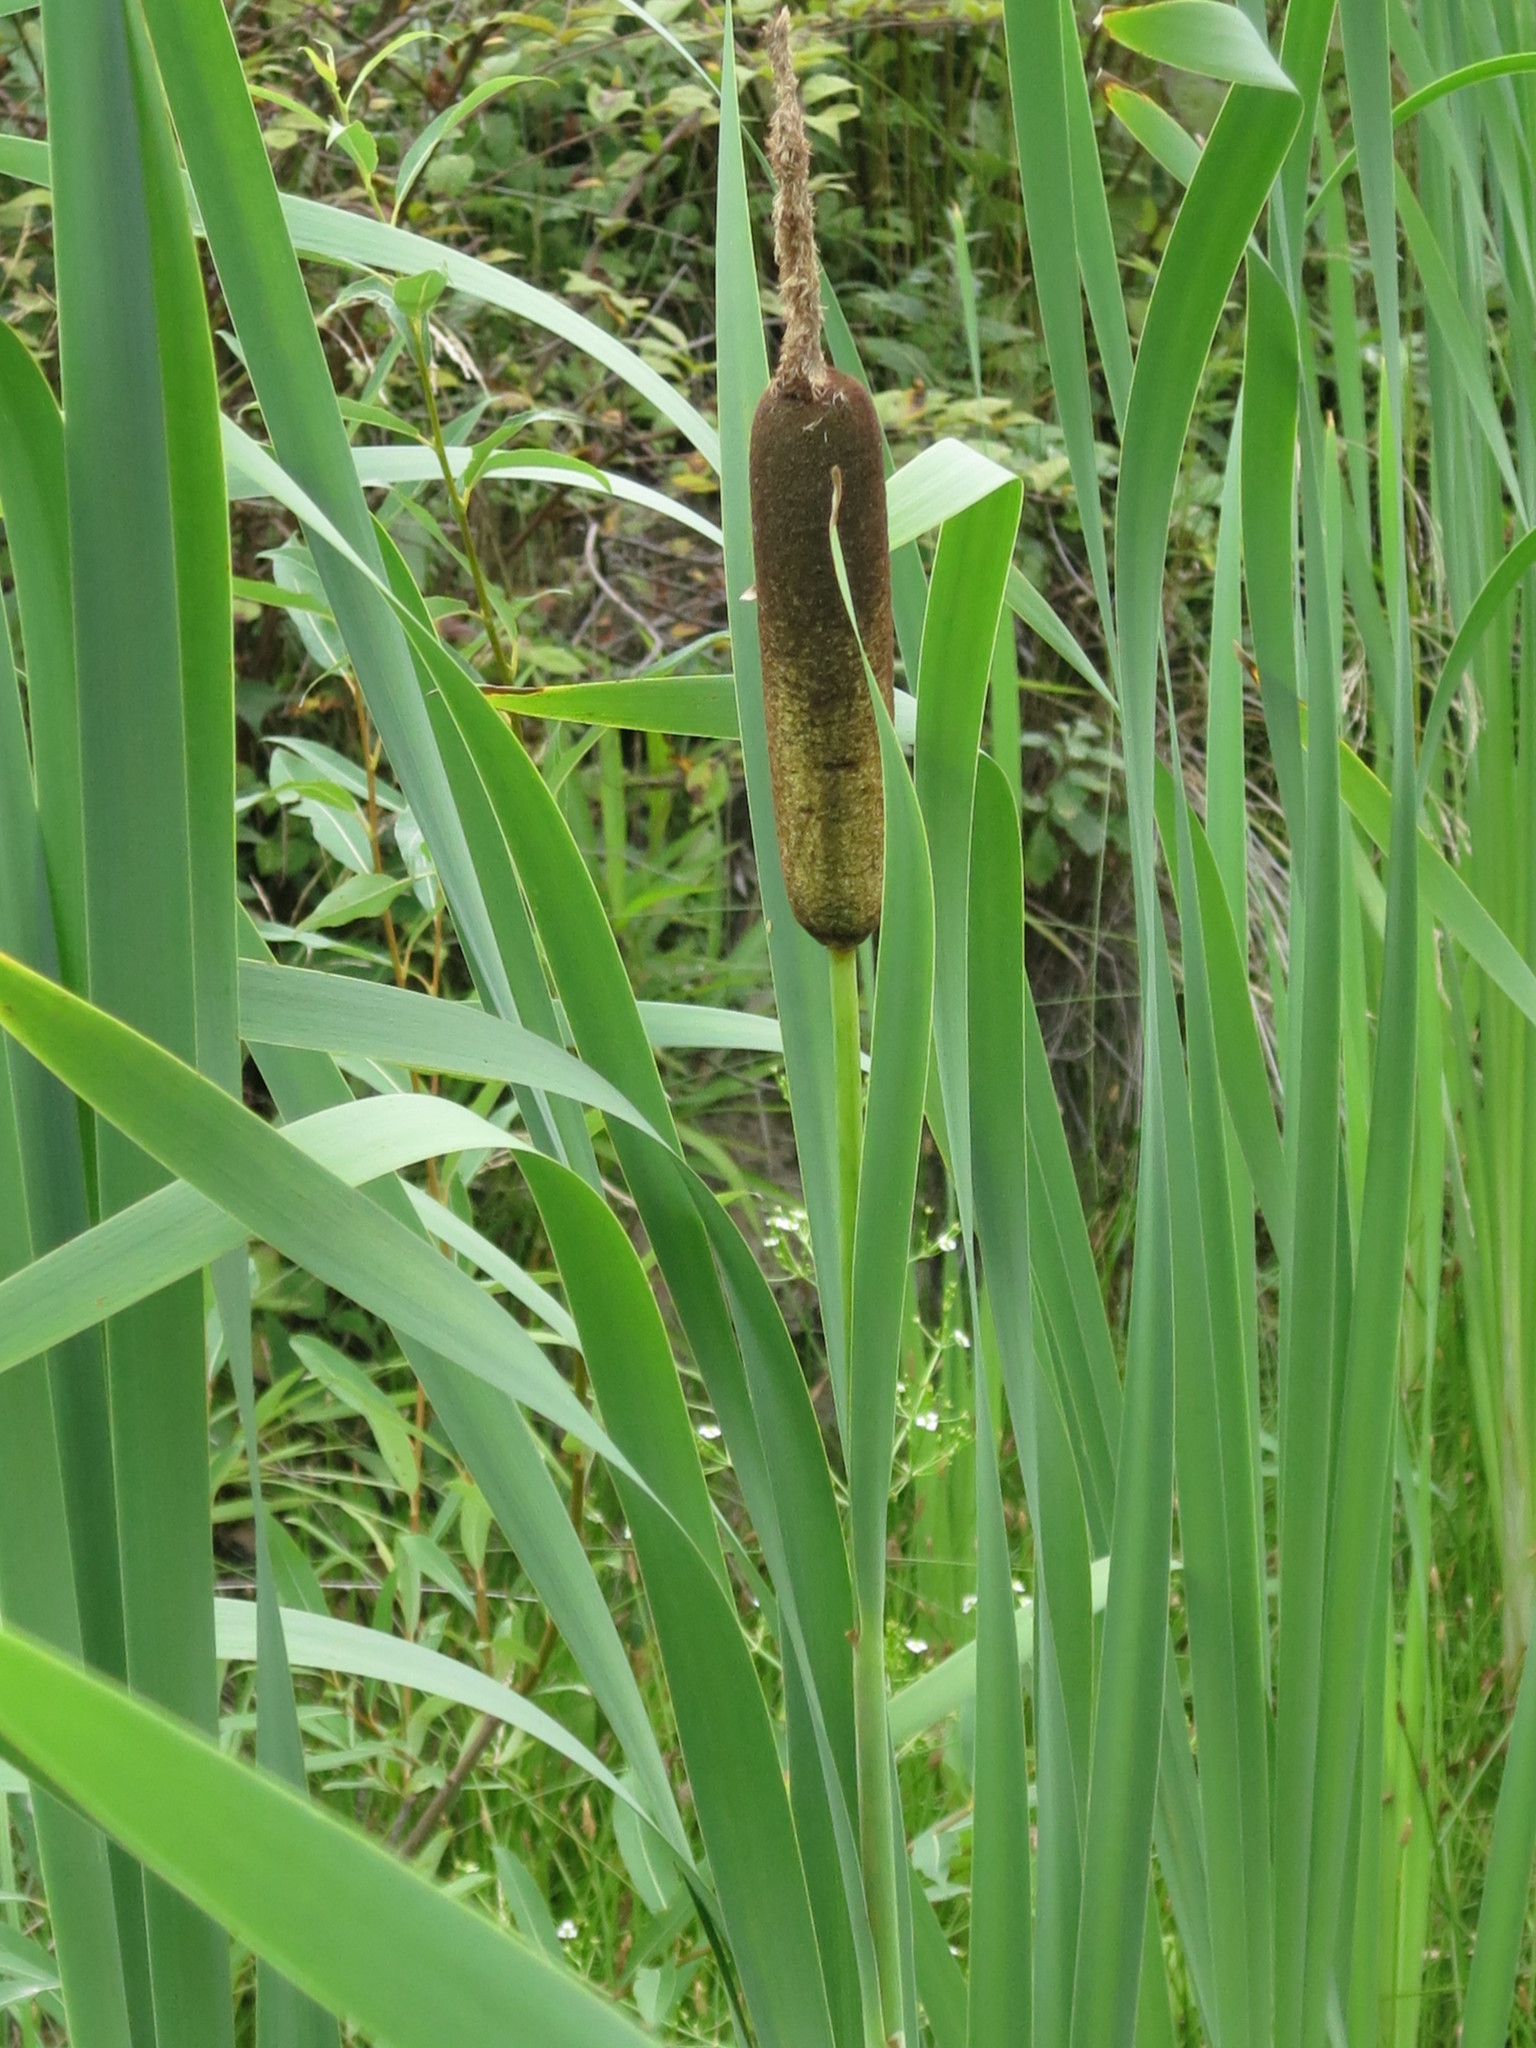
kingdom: Plantae
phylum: Tracheophyta
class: Liliopsida
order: Poales
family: Typhaceae
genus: Typha
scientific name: Typha latifolia
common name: Broadleaf cattail
